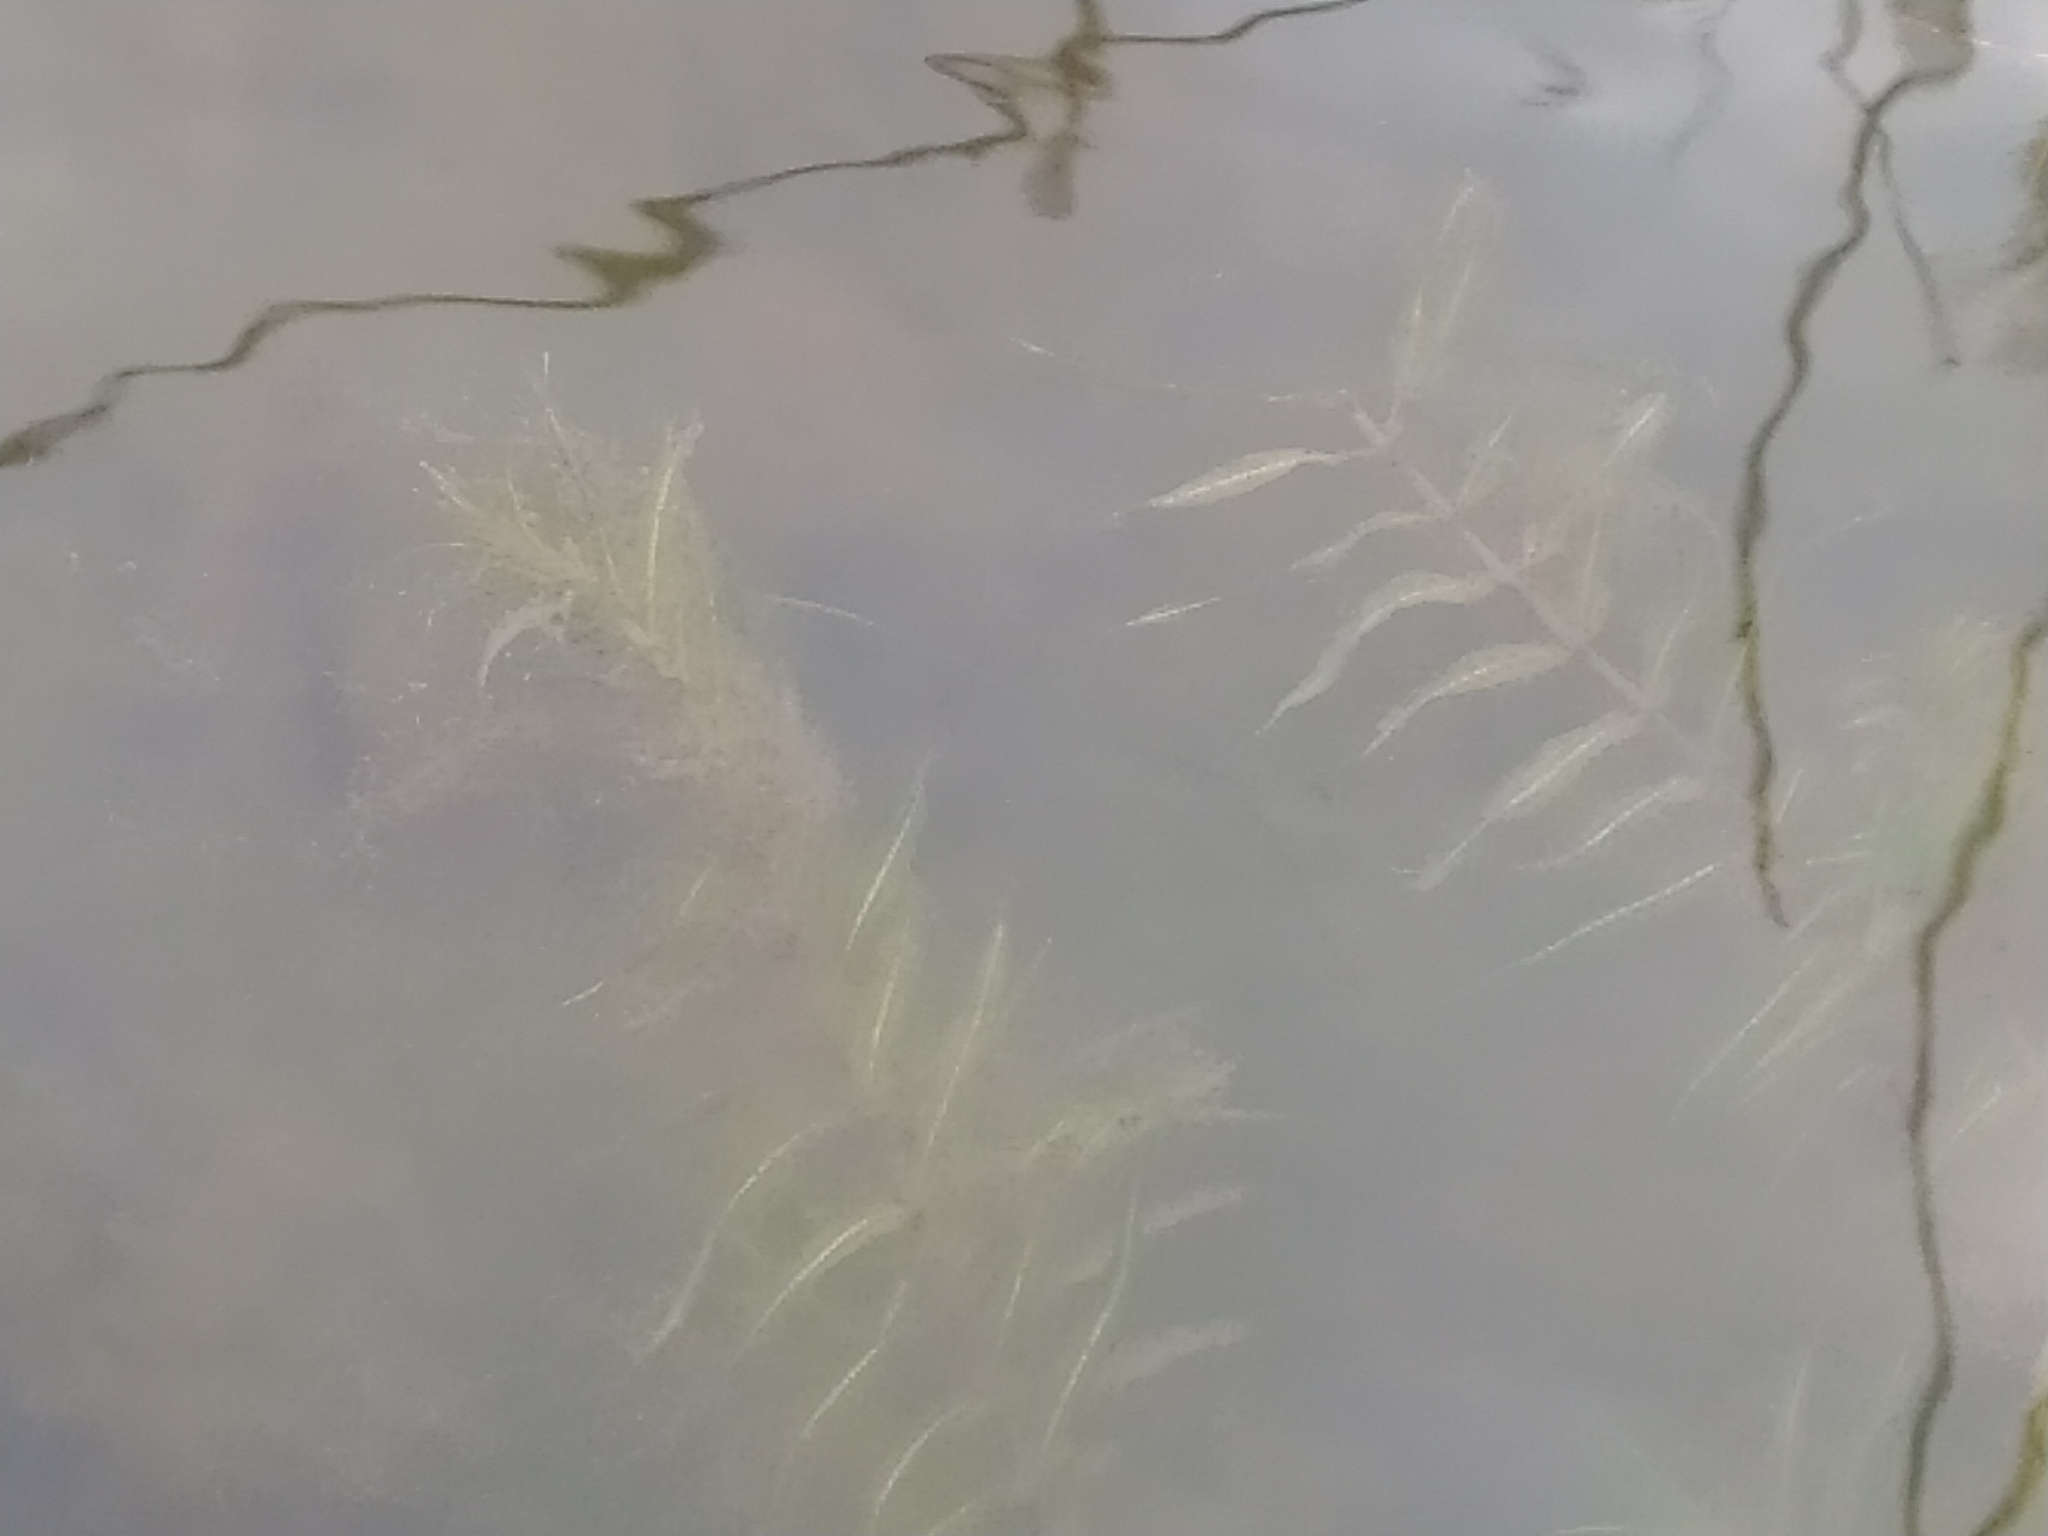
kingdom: Plantae
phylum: Tracheophyta
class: Liliopsida
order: Alismatales
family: Potamogetonaceae
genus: Groenlandia
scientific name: Groenlandia densa
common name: Opposite-leaved pondweed
